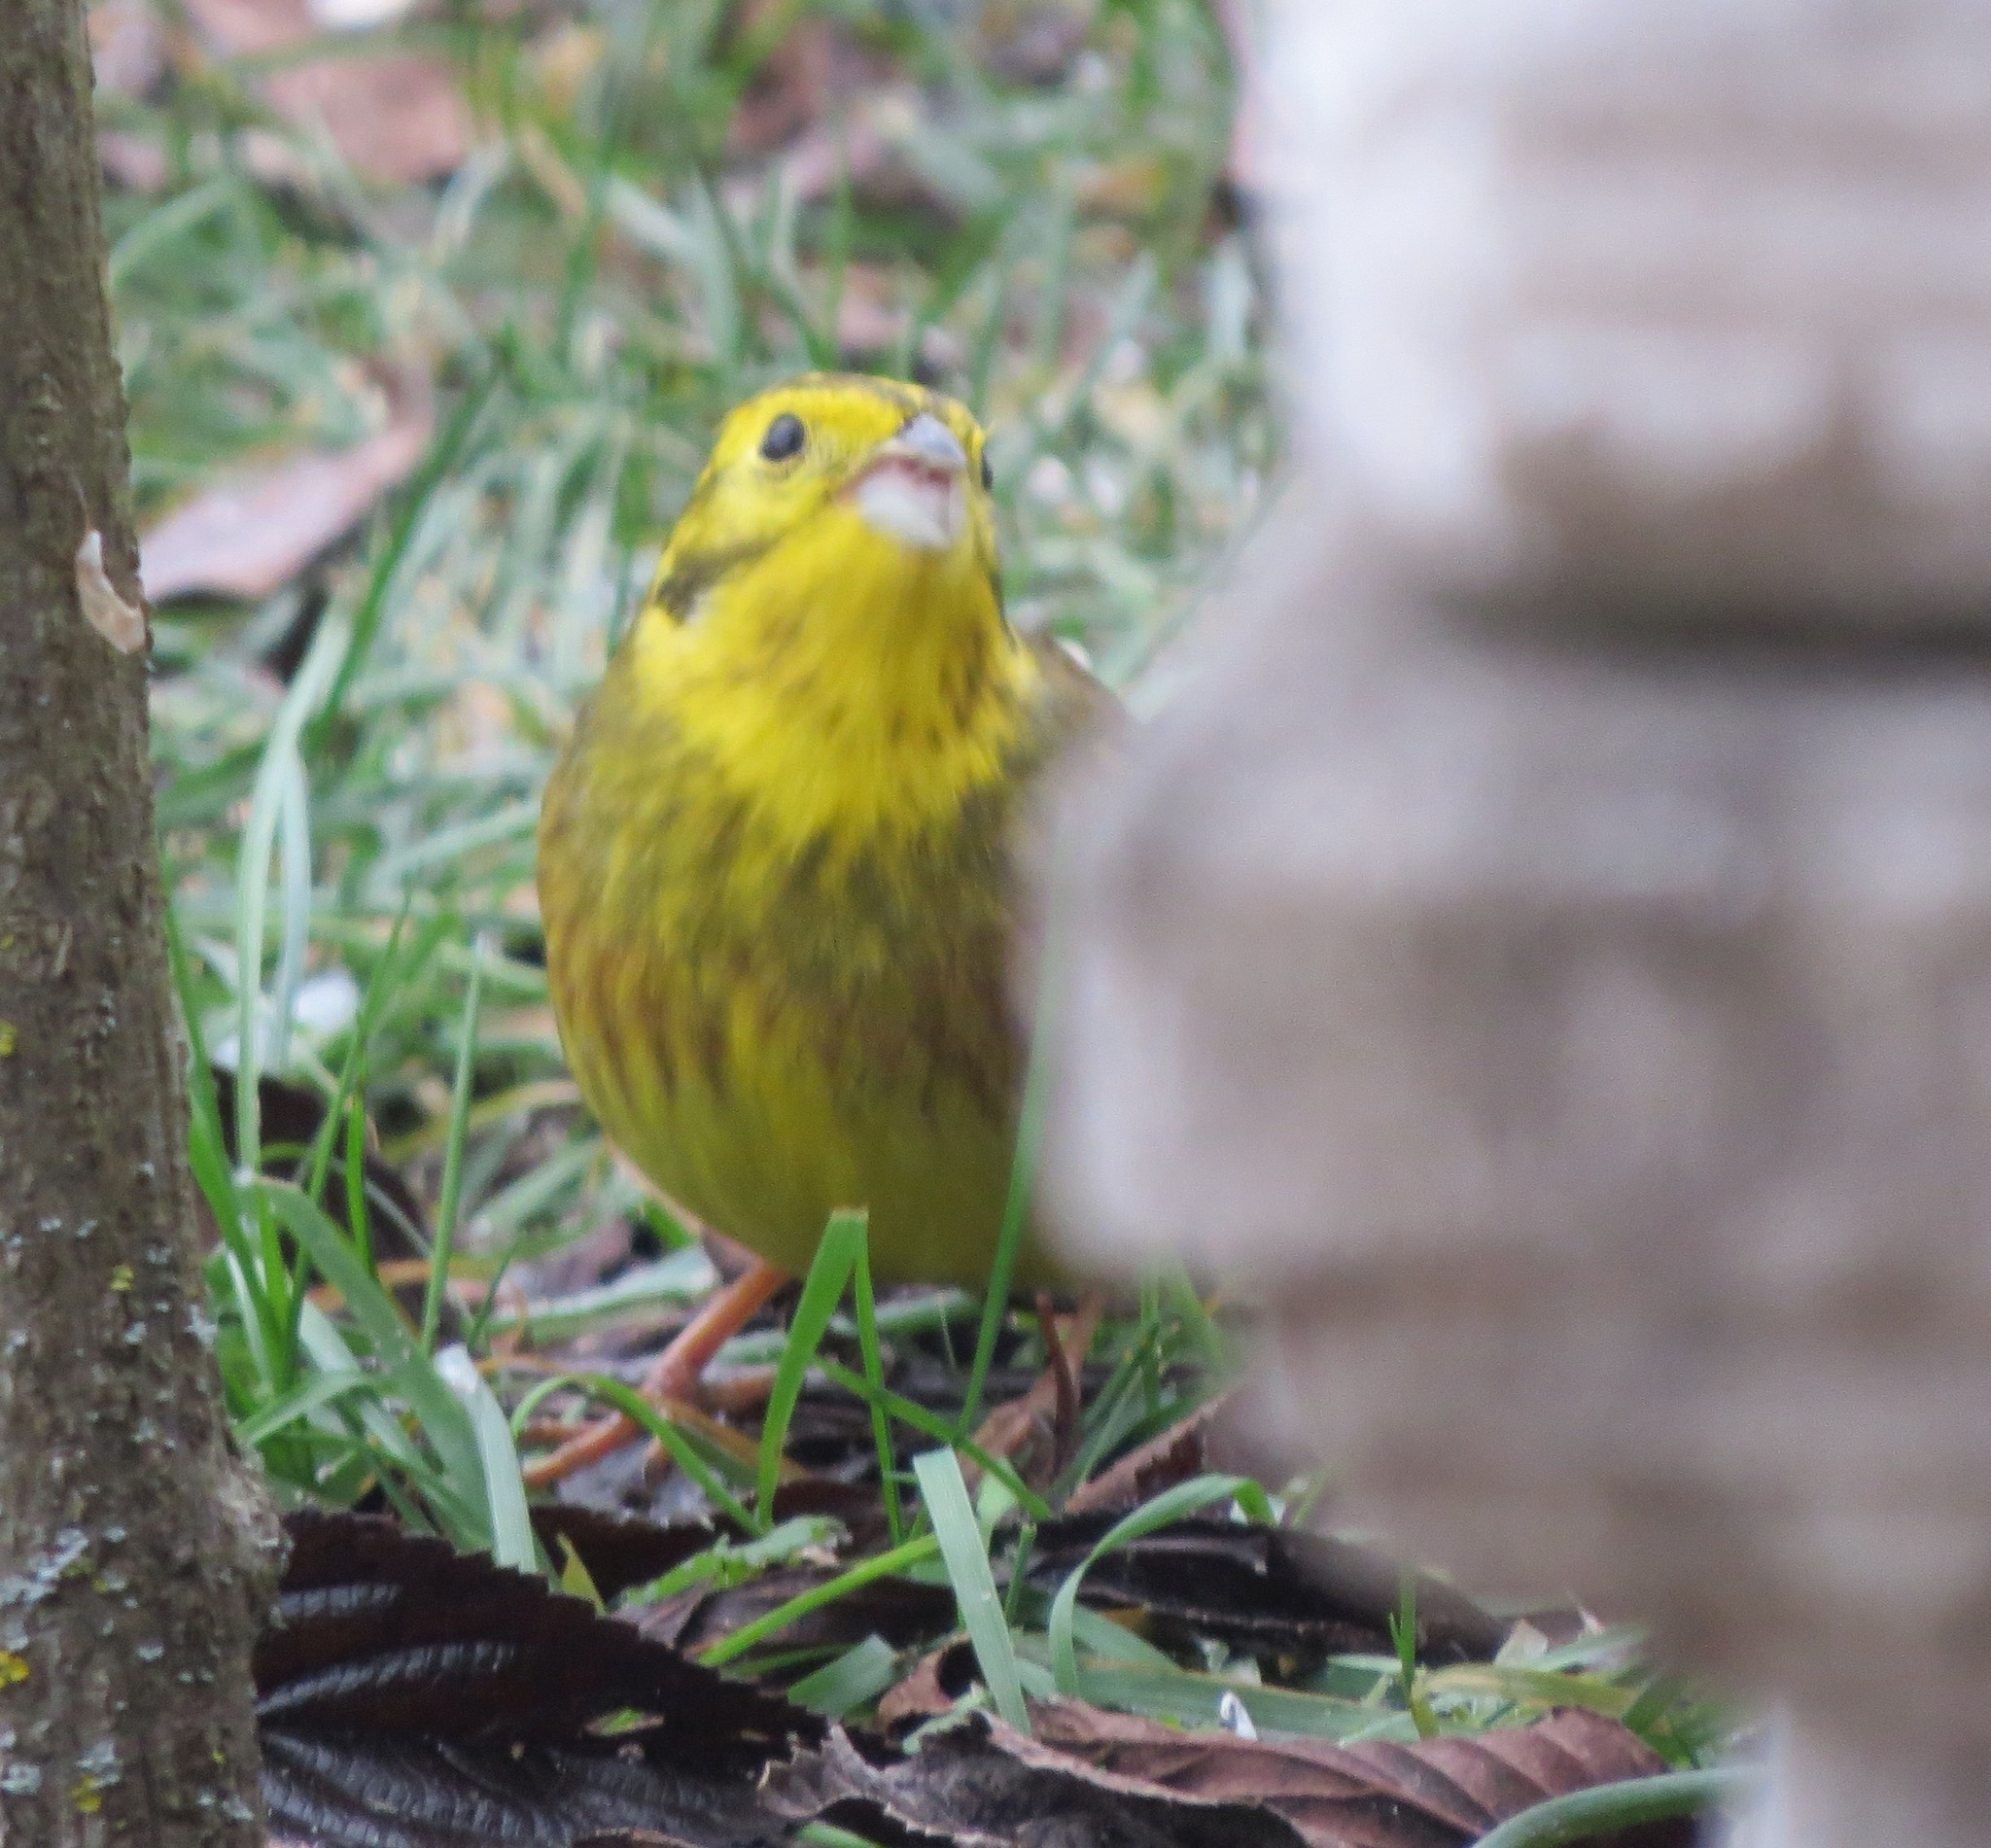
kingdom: Animalia
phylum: Chordata
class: Aves
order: Passeriformes
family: Emberizidae
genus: Emberiza
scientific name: Emberiza citrinella
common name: Yellowhammer
